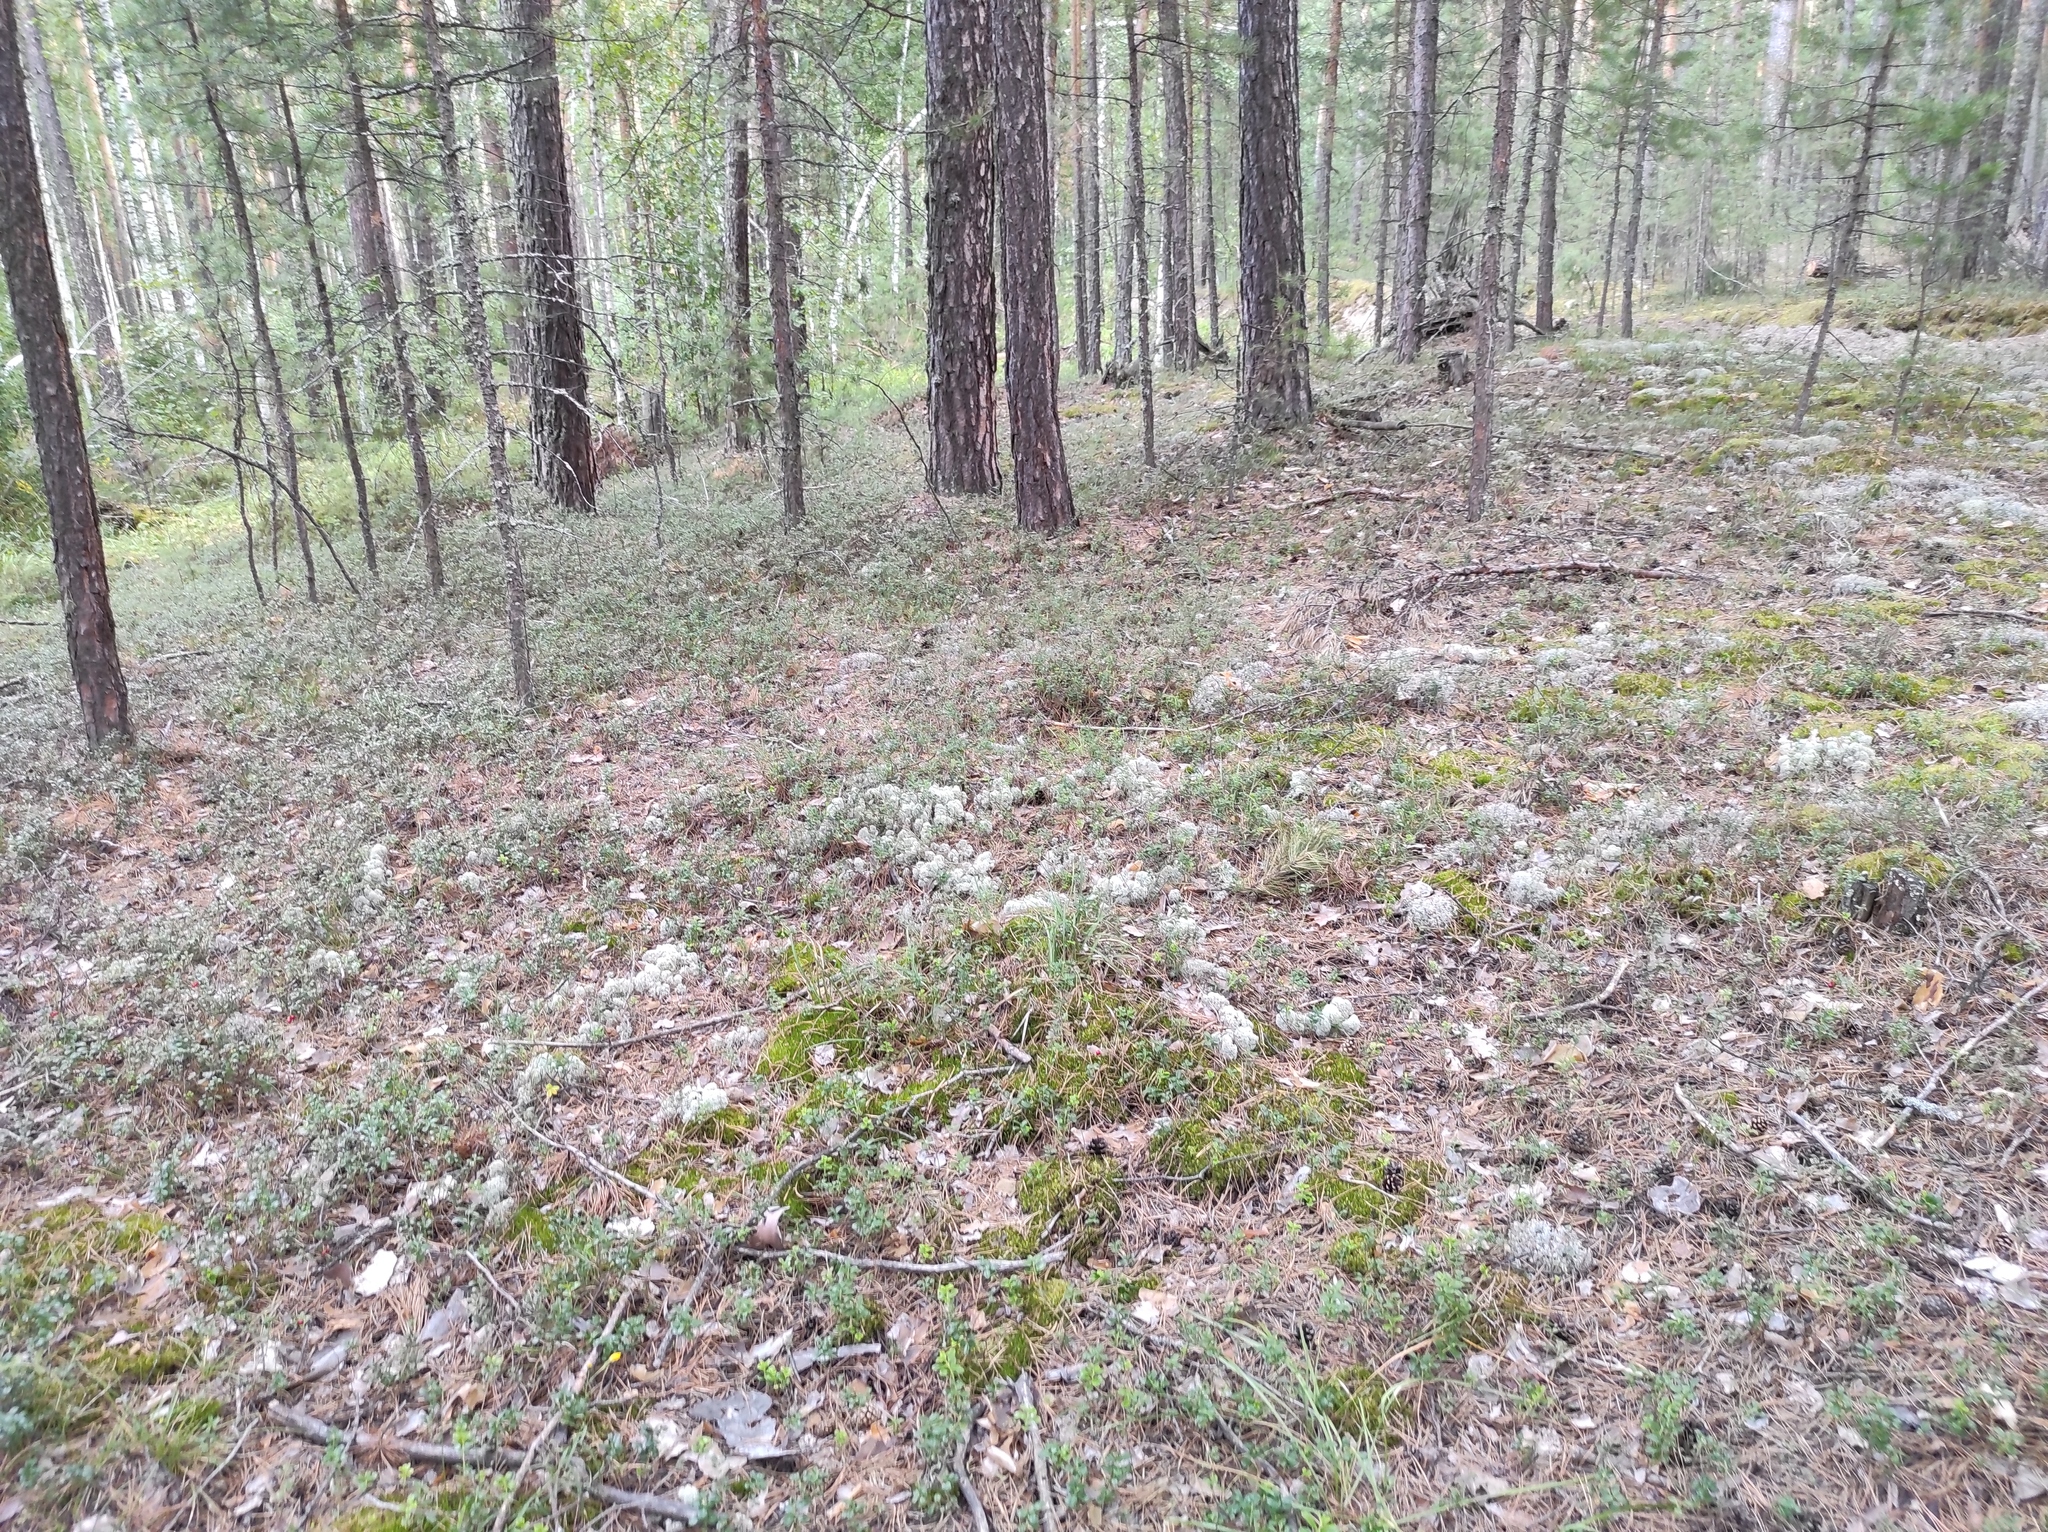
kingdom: Plantae
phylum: Tracheophyta
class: Pinopsida
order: Pinales
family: Pinaceae
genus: Pinus
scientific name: Pinus sylvestris
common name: Scots pine
